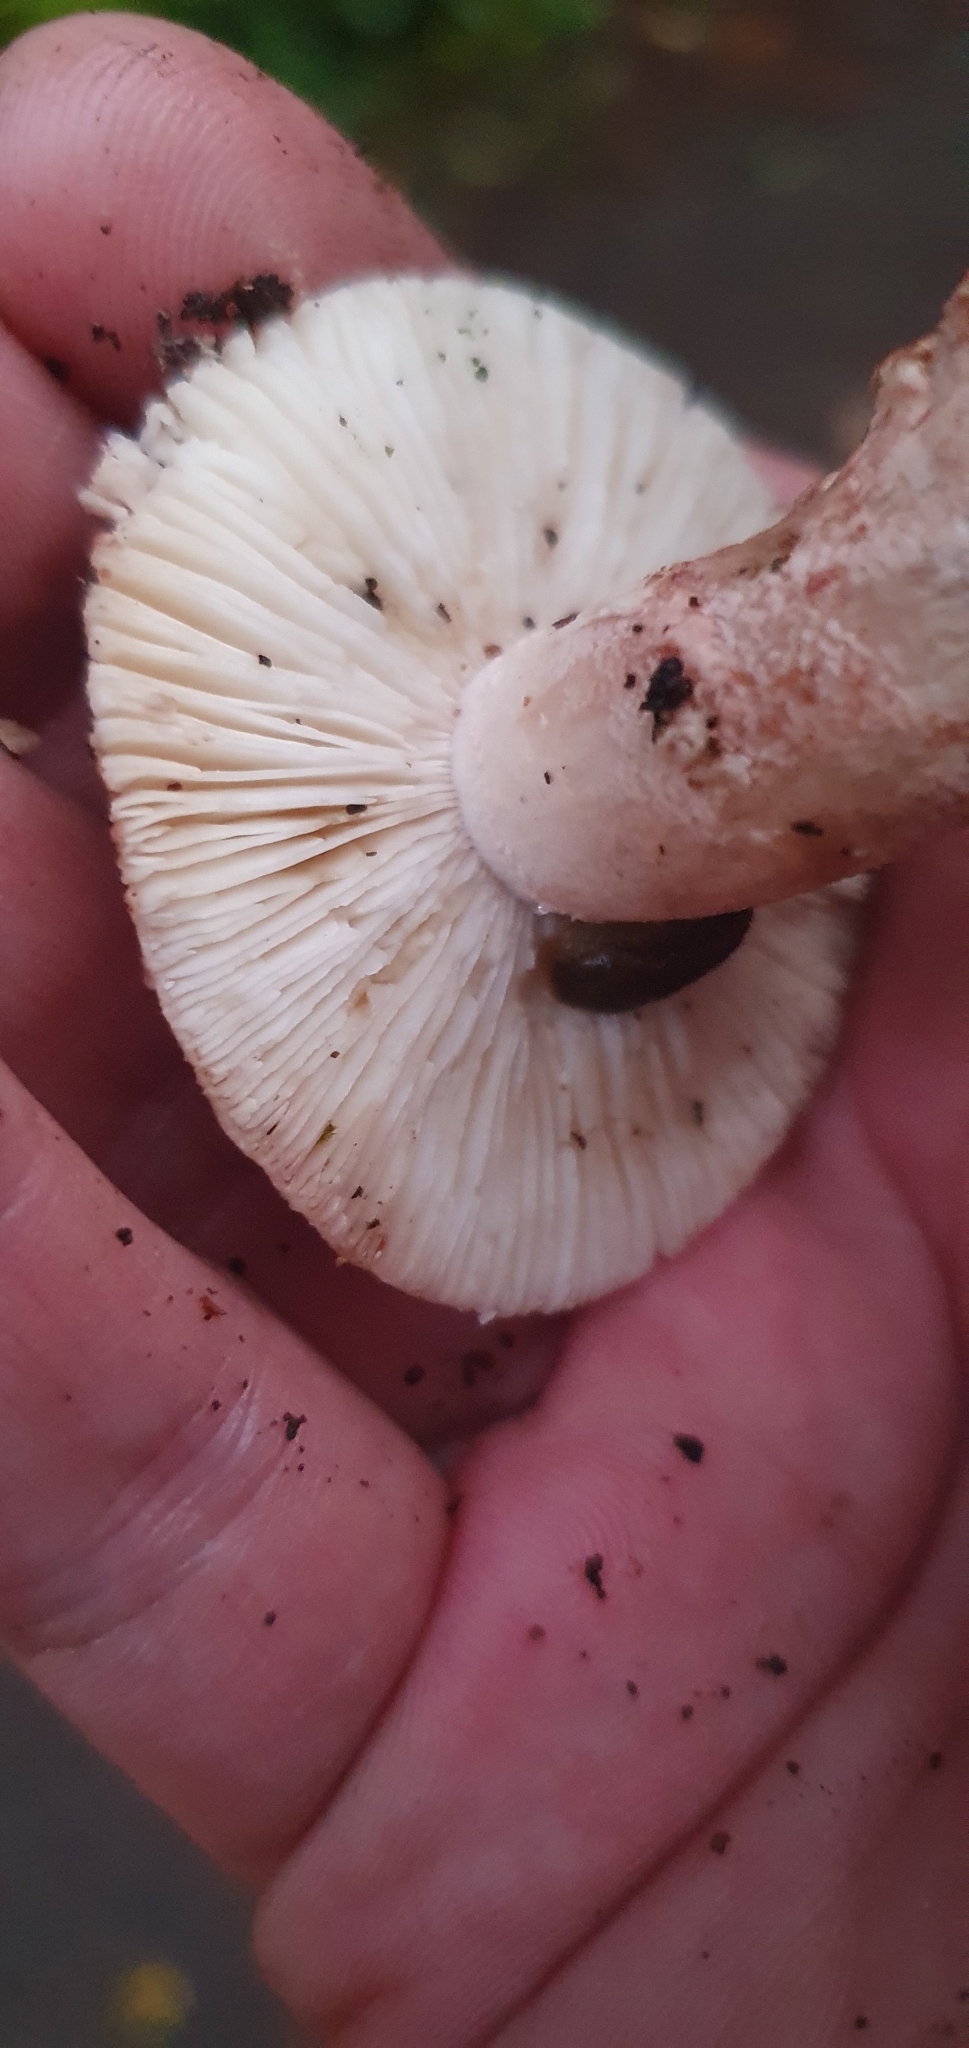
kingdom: Fungi
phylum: Basidiomycota
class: Agaricomycetes
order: Agaricales
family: Amanitaceae
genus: Amanita
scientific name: Amanita rubescens
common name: Blusher
